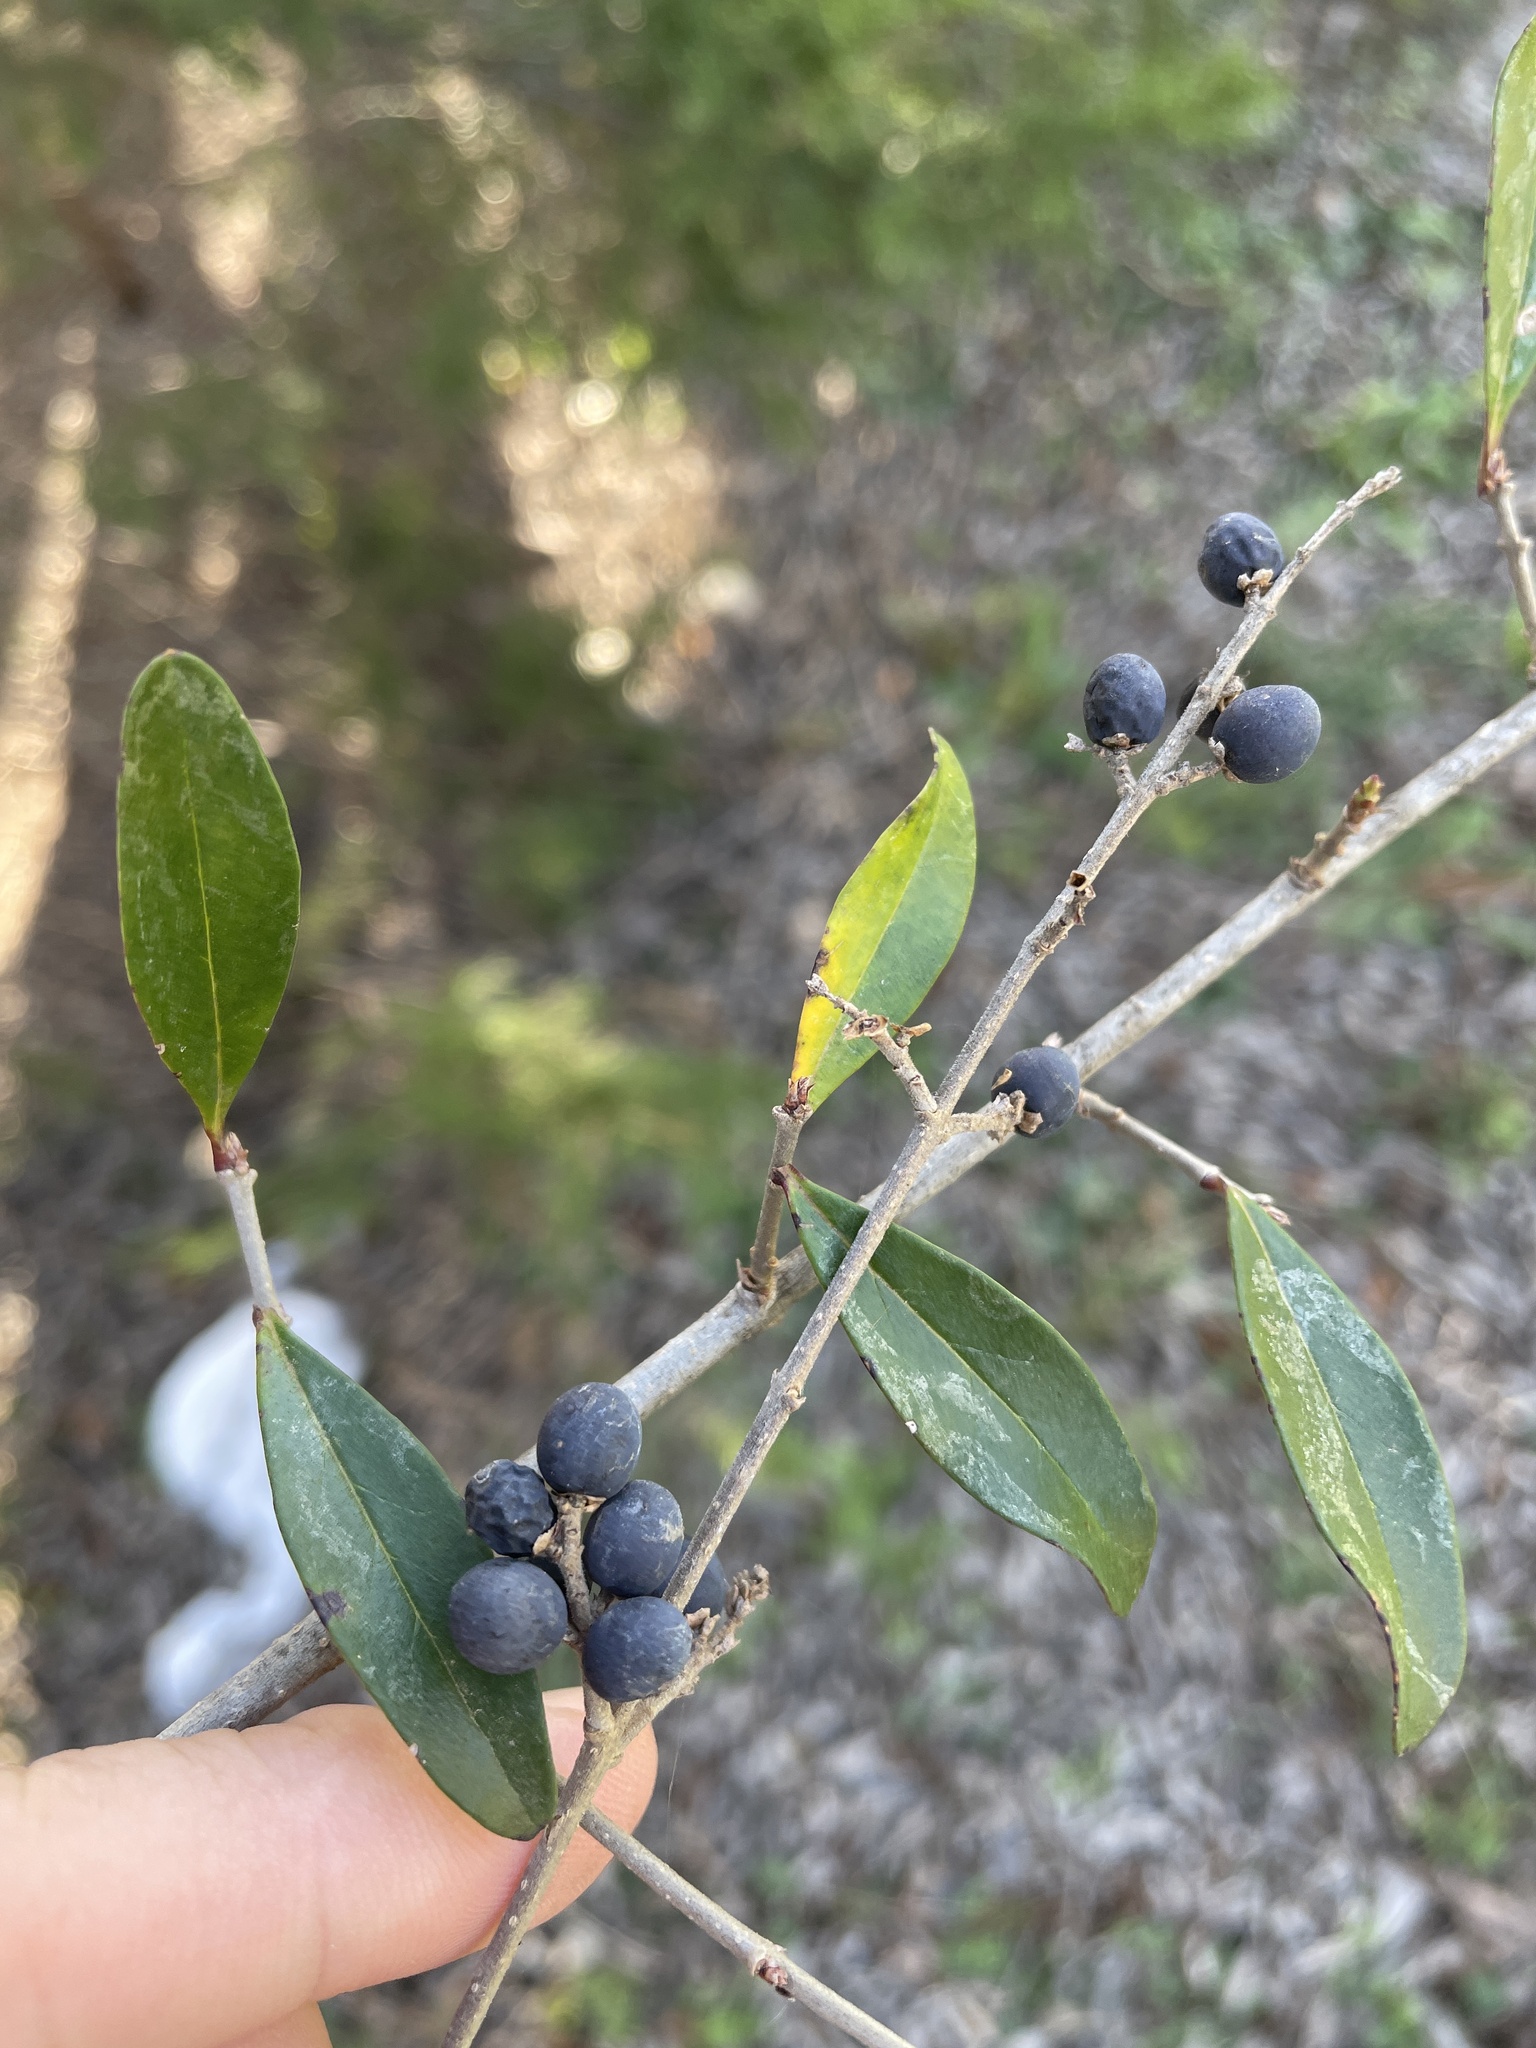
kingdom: Plantae
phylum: Tracheophyta
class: Magnoliopsida
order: Lamiales
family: Oleaceae
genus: Ligustrum
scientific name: Ligustrum quihoui
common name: Waxyleaf privet
